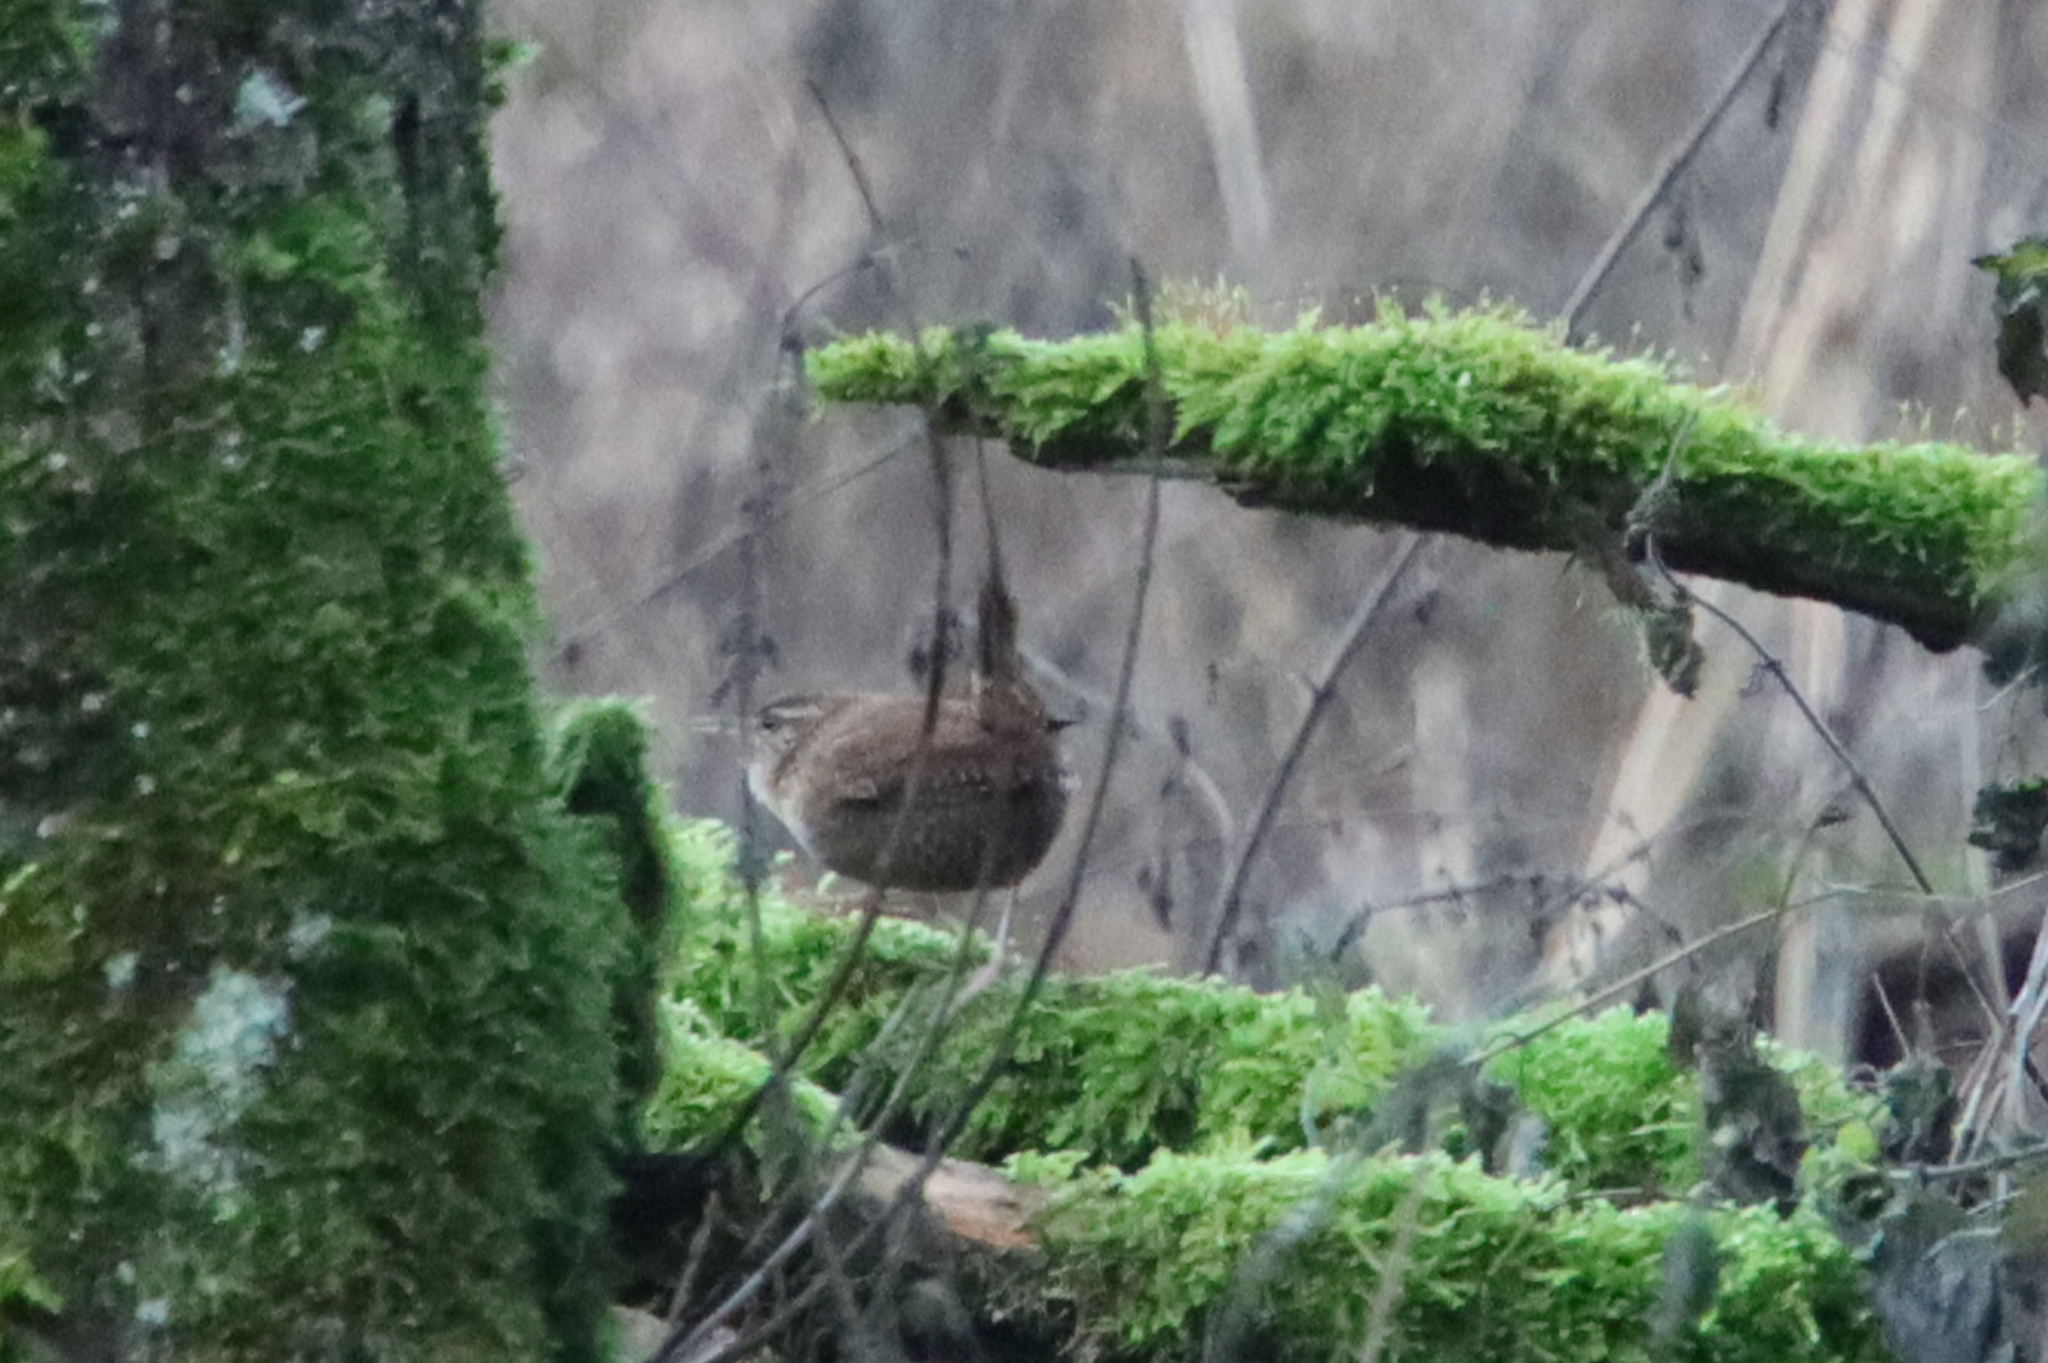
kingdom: Animalia
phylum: Chordata
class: Aves
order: Passeriformes
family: Troglodytidae
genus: Troglodytes
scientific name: Troglodytes troglodytes
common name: Eurasian wren
